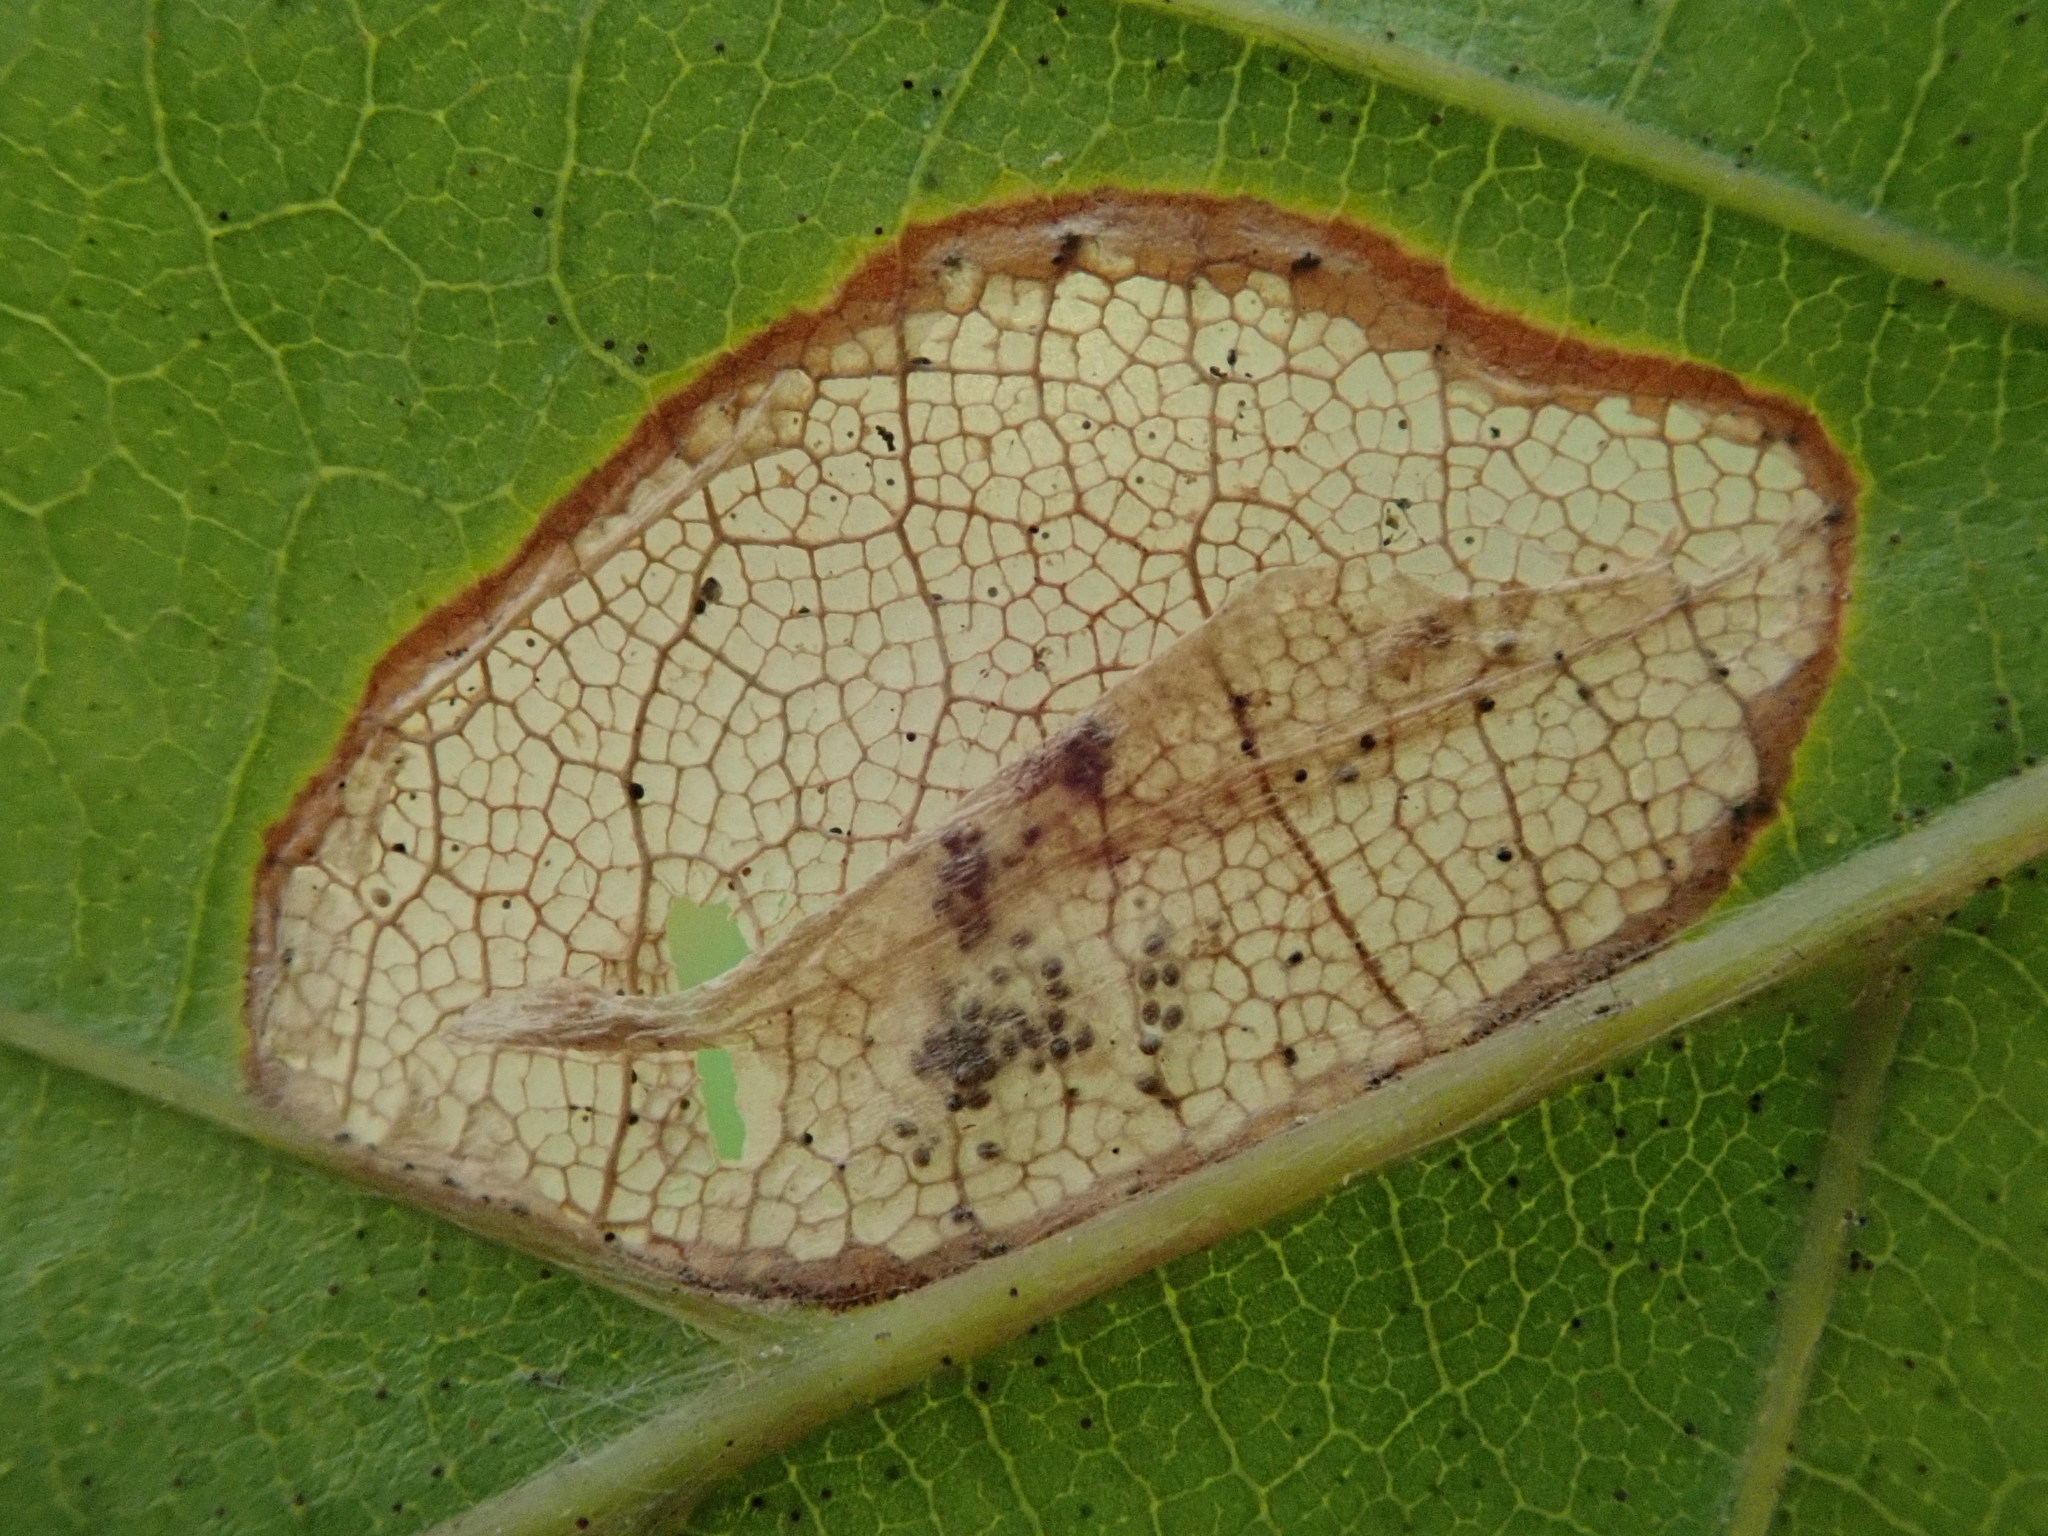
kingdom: Animalia
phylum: Arthropoda
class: Insecta
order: Lepidoptera
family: Gracillariidae
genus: Phyllonorycter
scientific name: Phyllonorycter maestingella
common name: Beech midget
